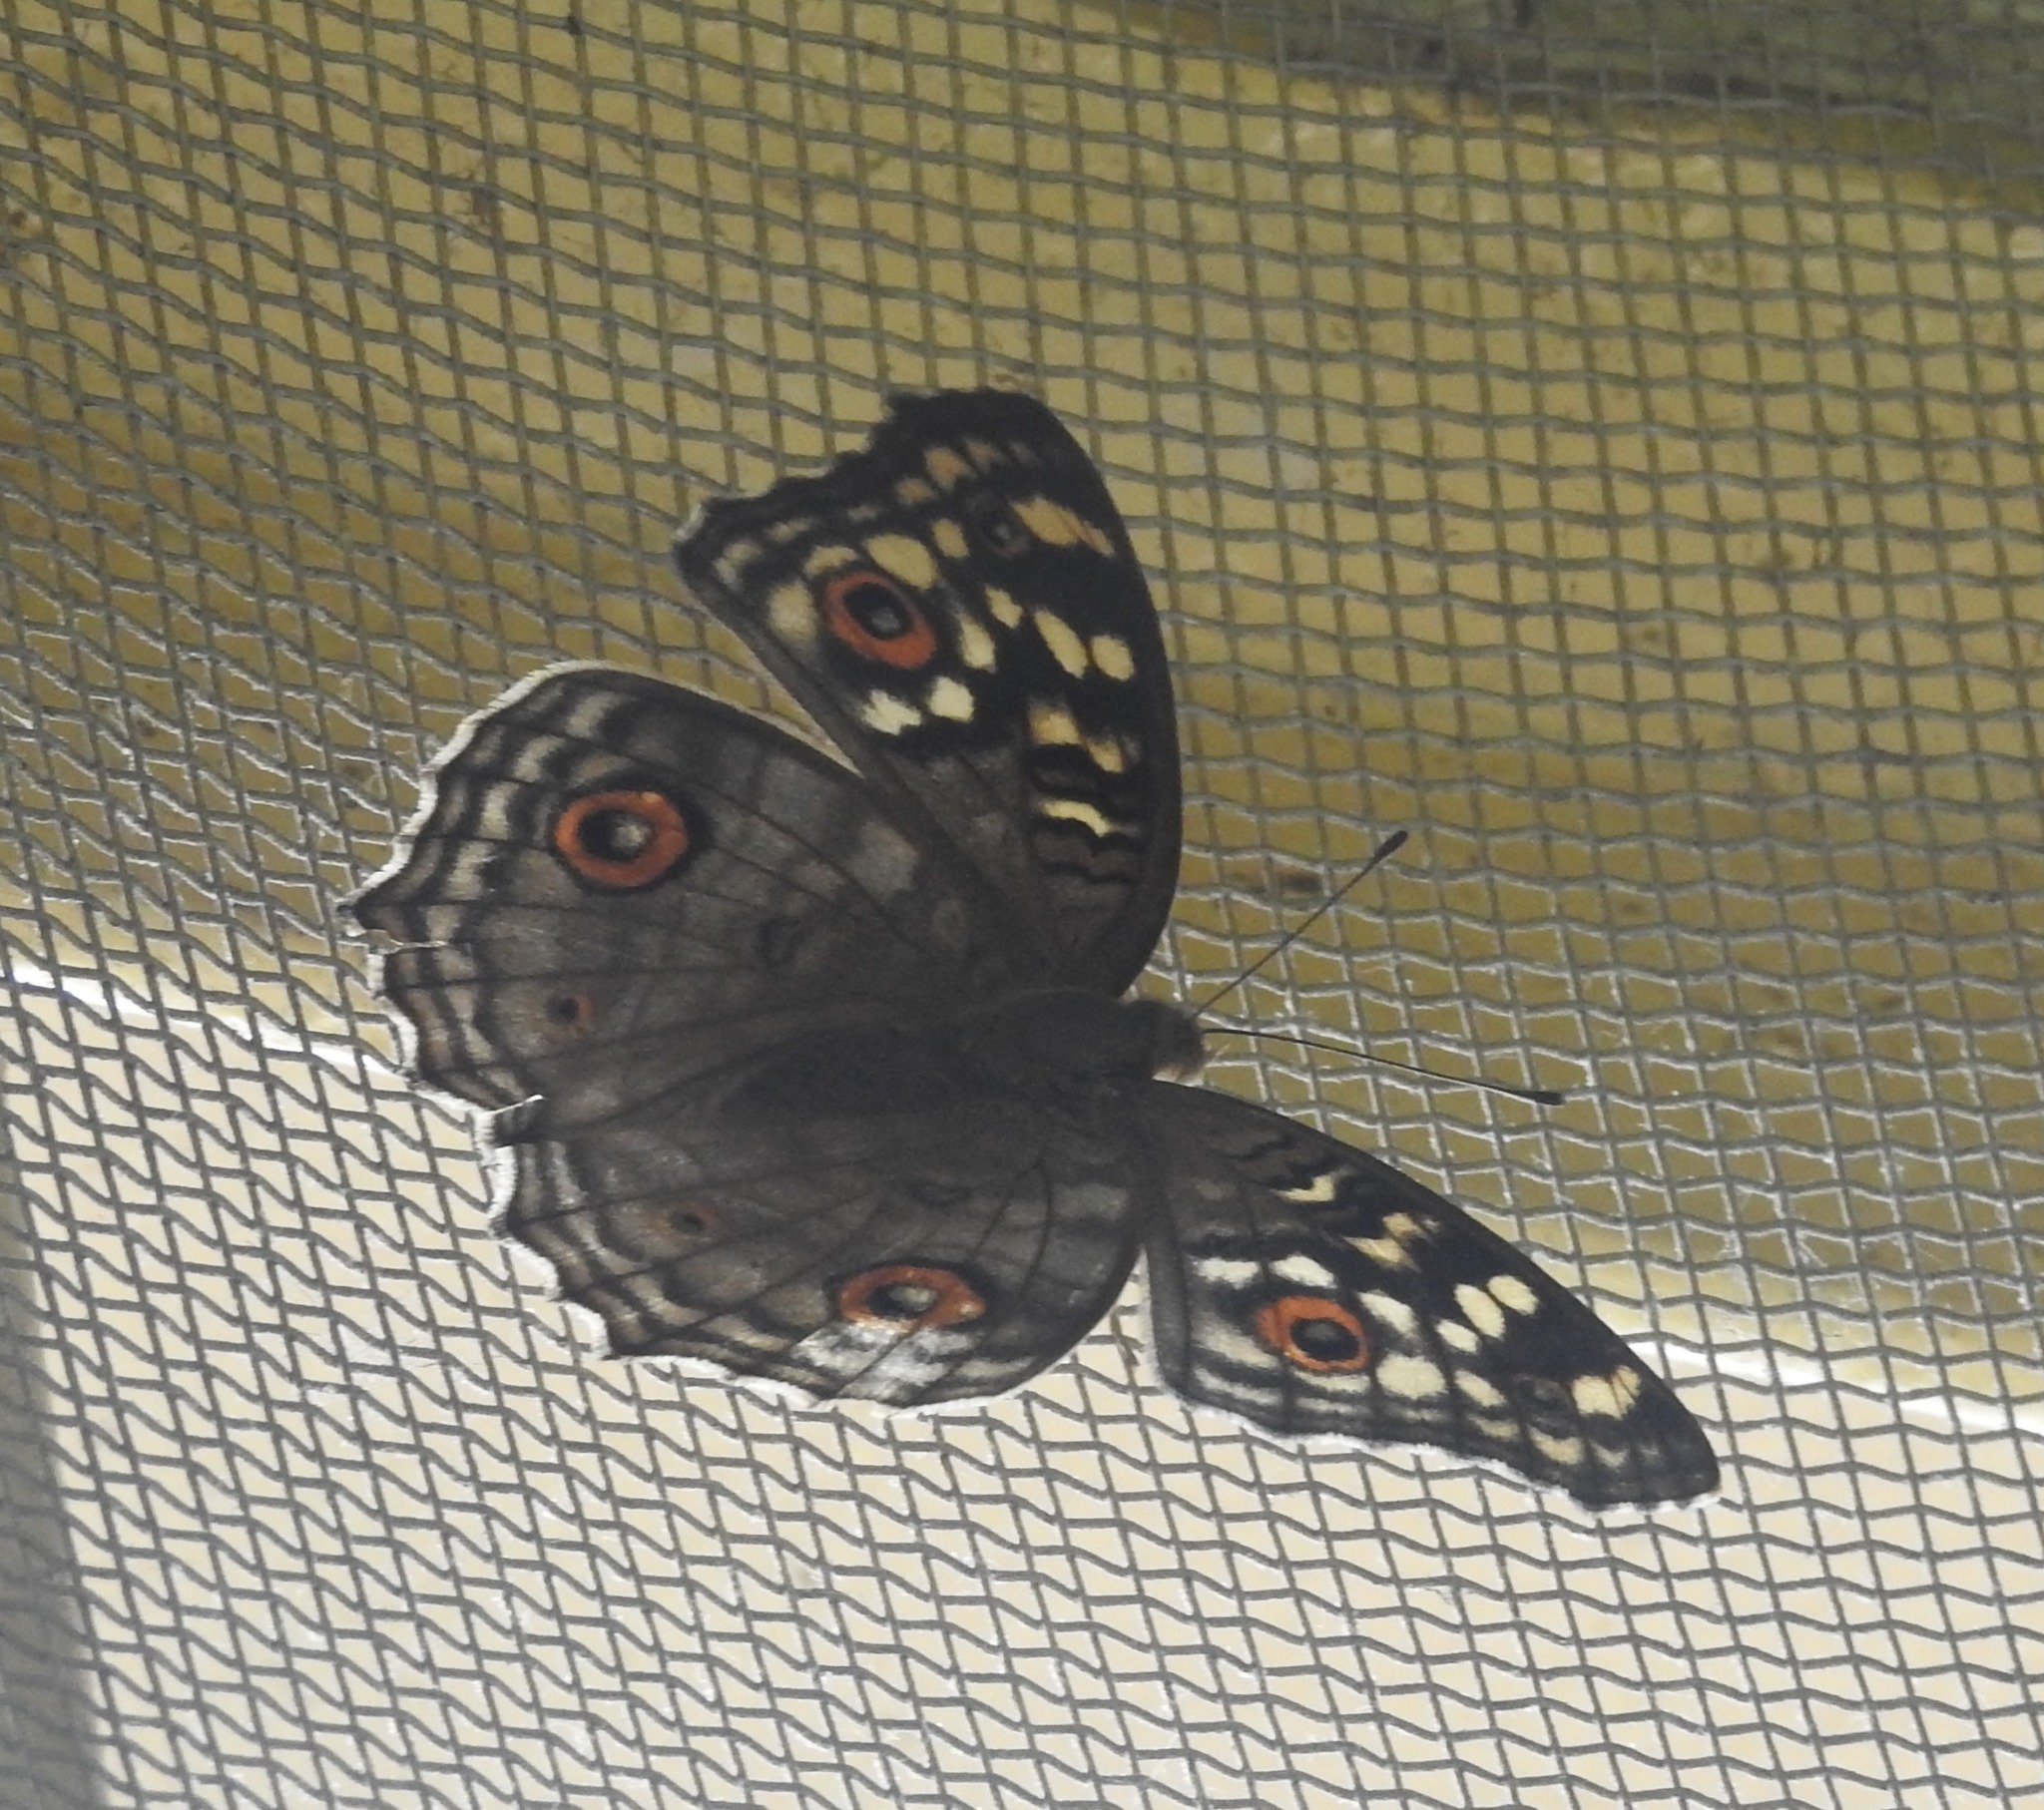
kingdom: Animalia
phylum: Arthropoda
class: Insecta
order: Lepidoptera
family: Nymphalidae
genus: Junonia
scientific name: Junonia lemonias
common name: Lemon pansy
